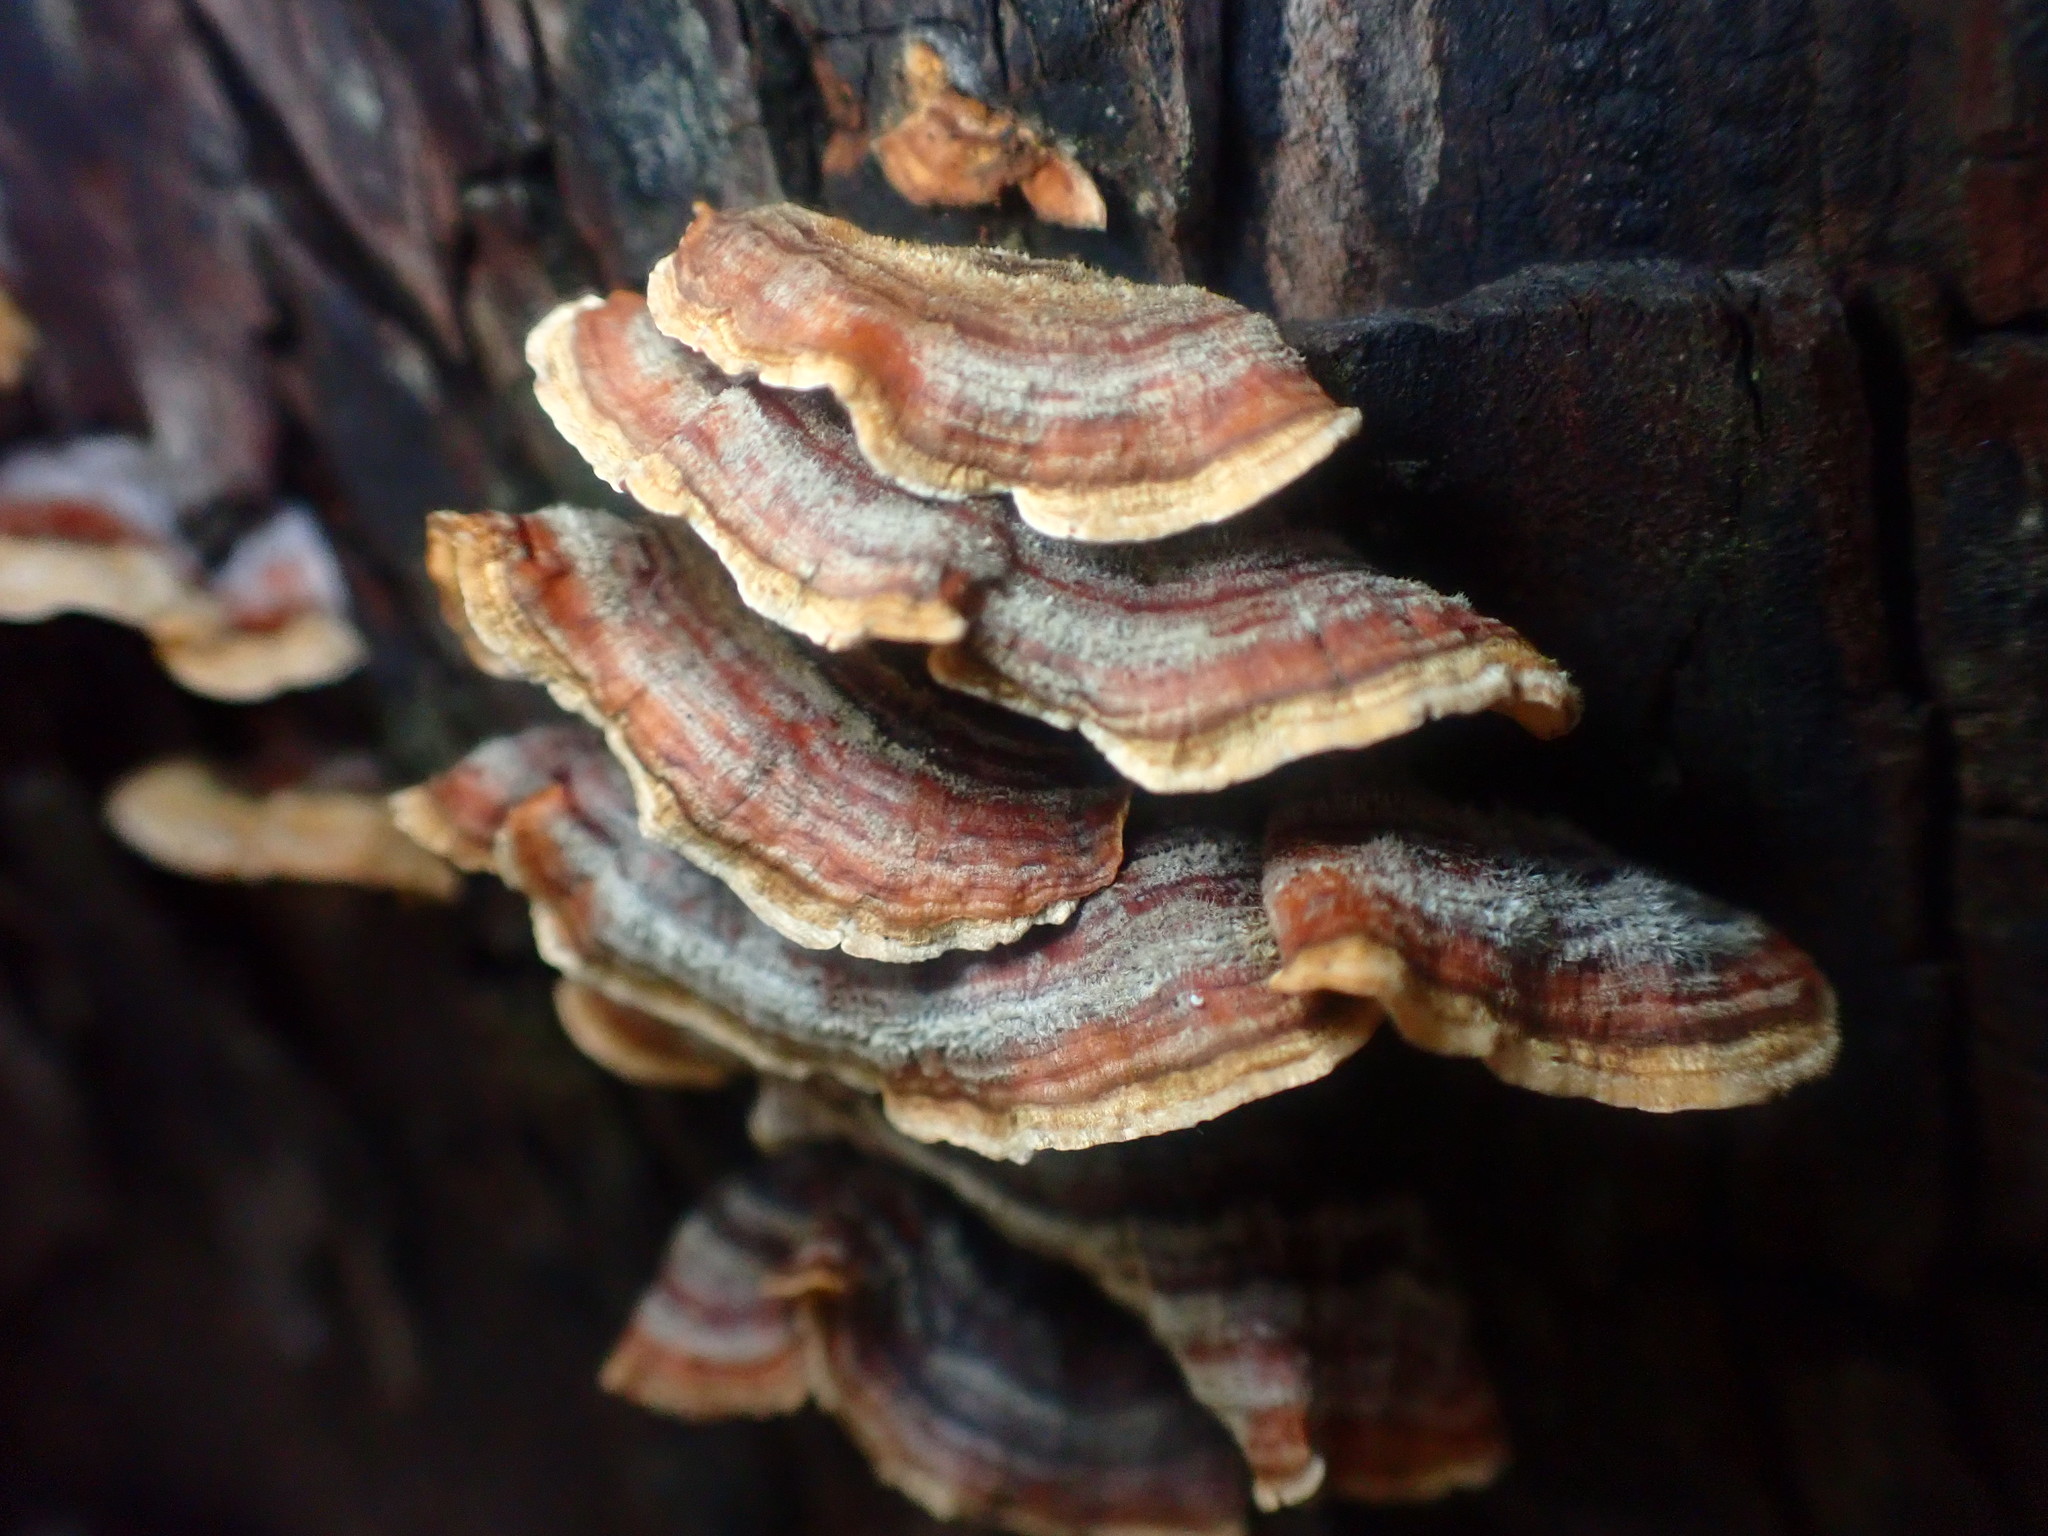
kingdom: Fungi
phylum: Basidiomycota
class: Agaricomycetes
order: Russulales
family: Stereaceae
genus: Stereum
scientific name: Stereum hirsutum
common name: Hairy curtain crust
